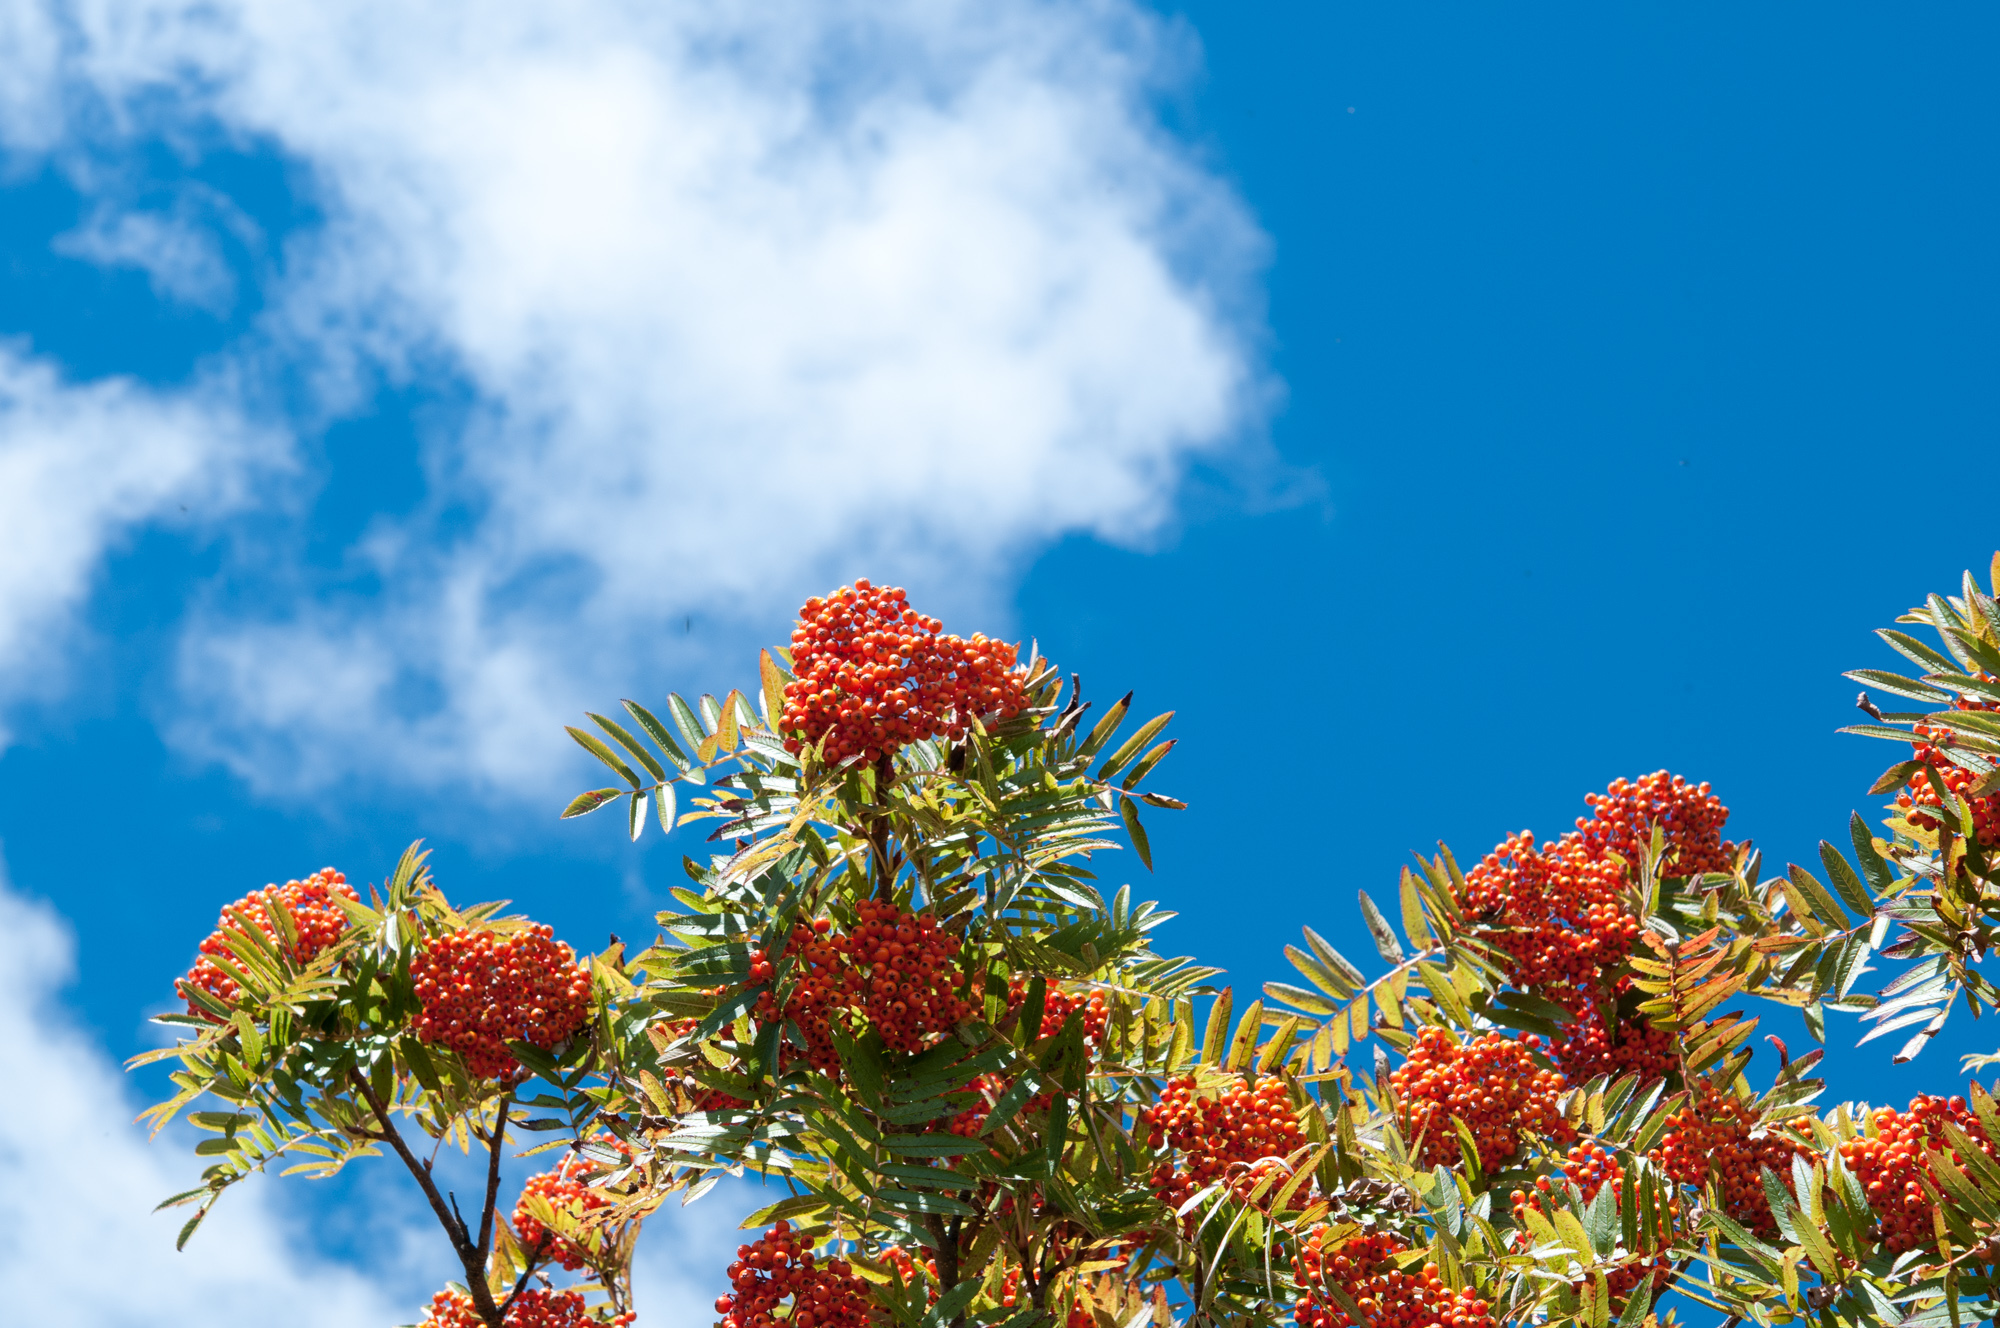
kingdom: Plantae
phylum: Tracheophyta
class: Magnoliopsida
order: Rosales
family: Rosaceae
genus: Sorbus
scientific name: Sorbus randaiensis
